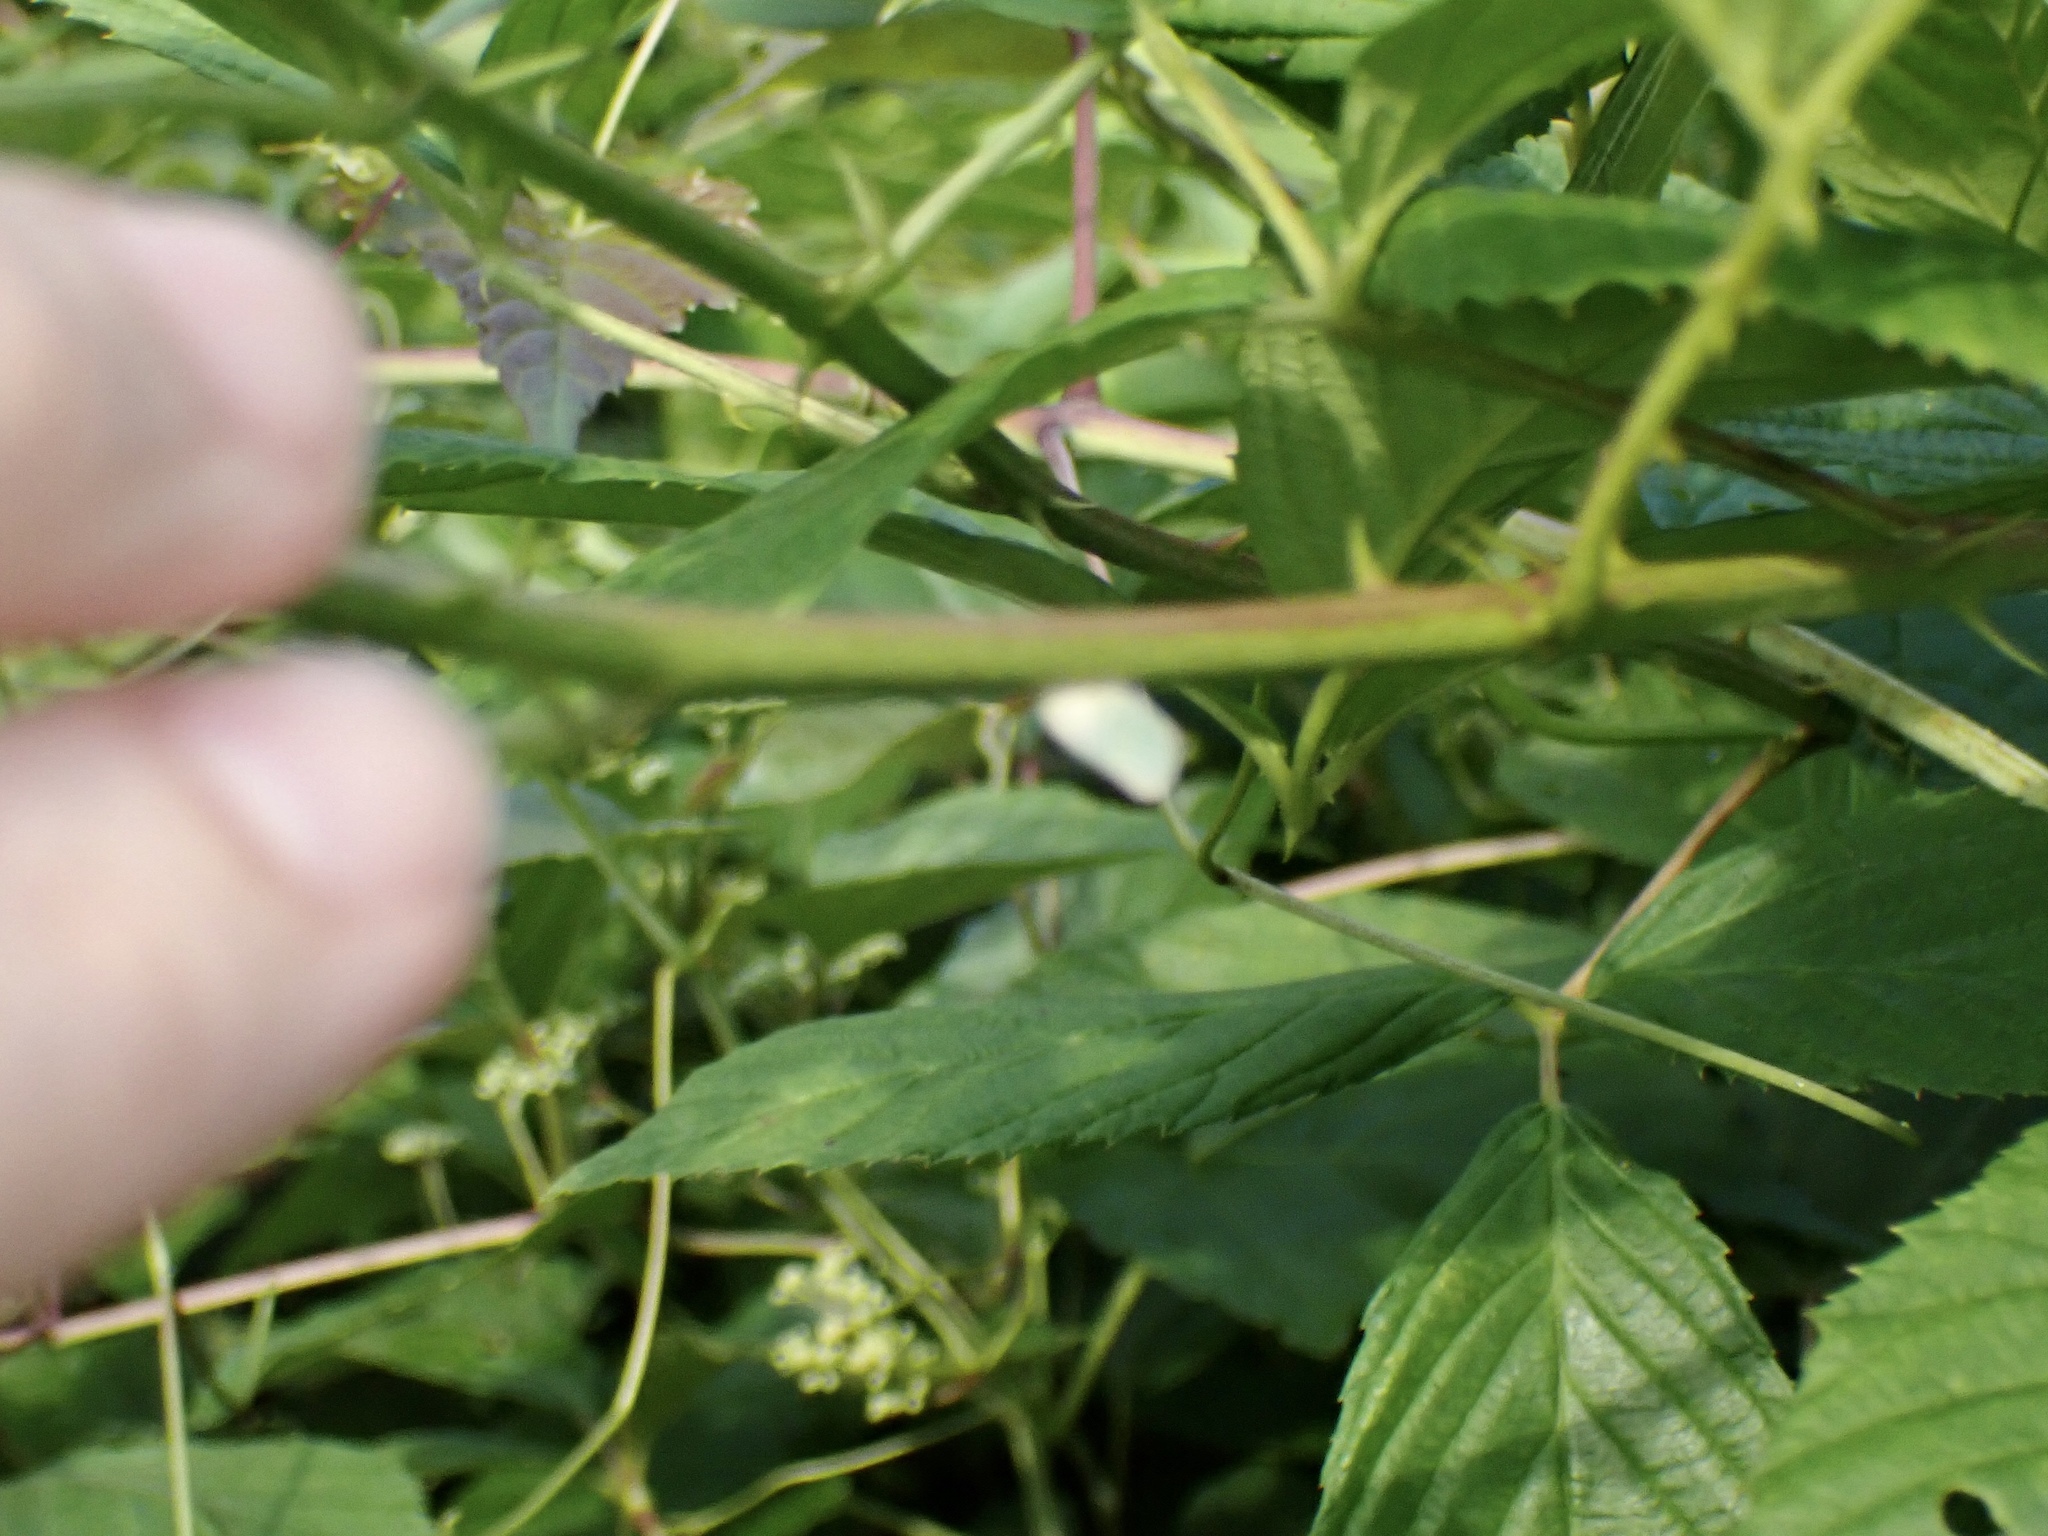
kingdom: Animalia
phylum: Arthropoda
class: Insecta
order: Hemiptera
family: Flatidae
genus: Ormenoides
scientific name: Ormenoides venusta
